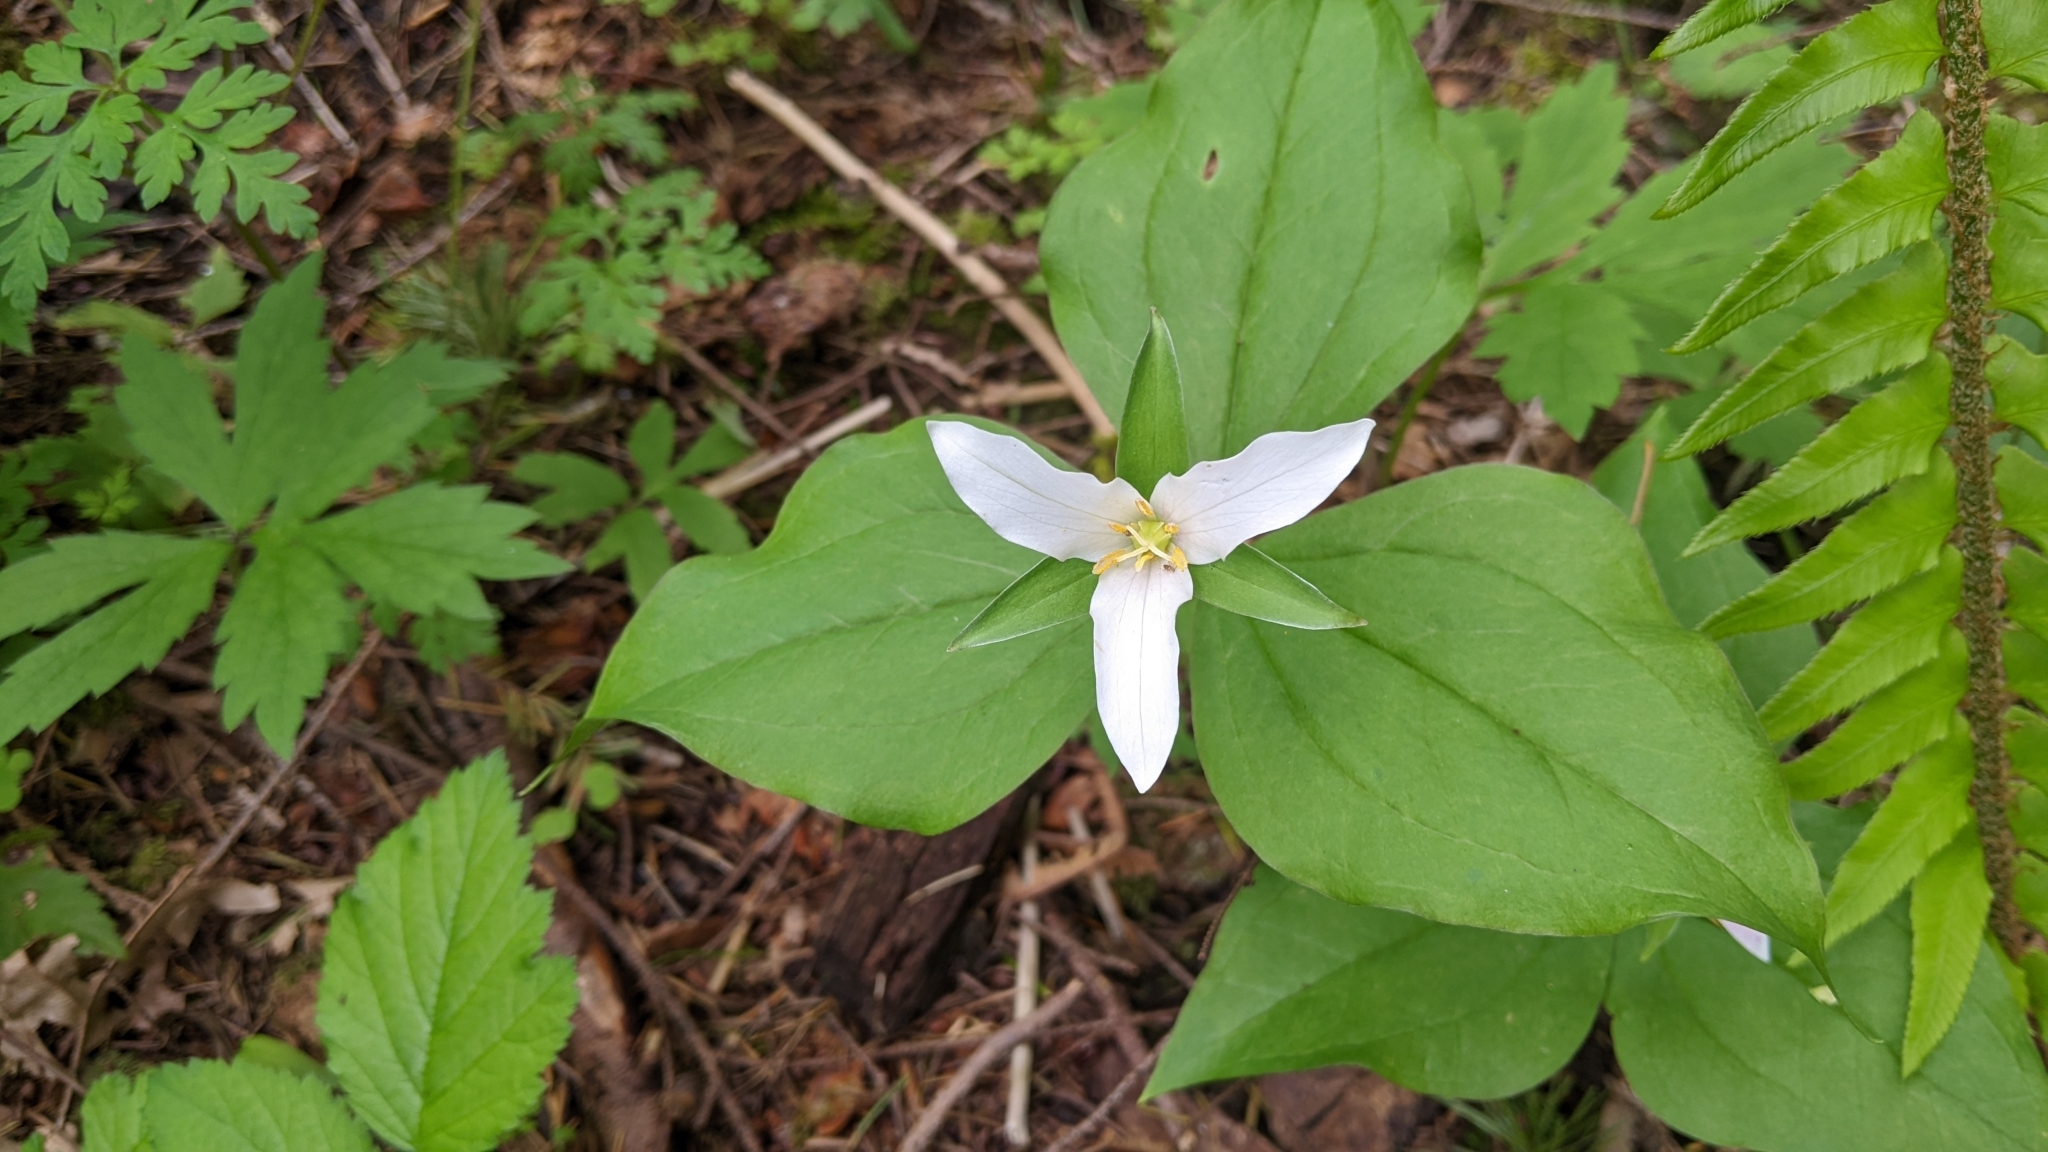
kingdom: Plantae
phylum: Tracheophyta
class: Liliopsida
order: Liliales
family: Melanthiaceae
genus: Trillium
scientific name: Trillium ovatum
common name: Pacific trillium
